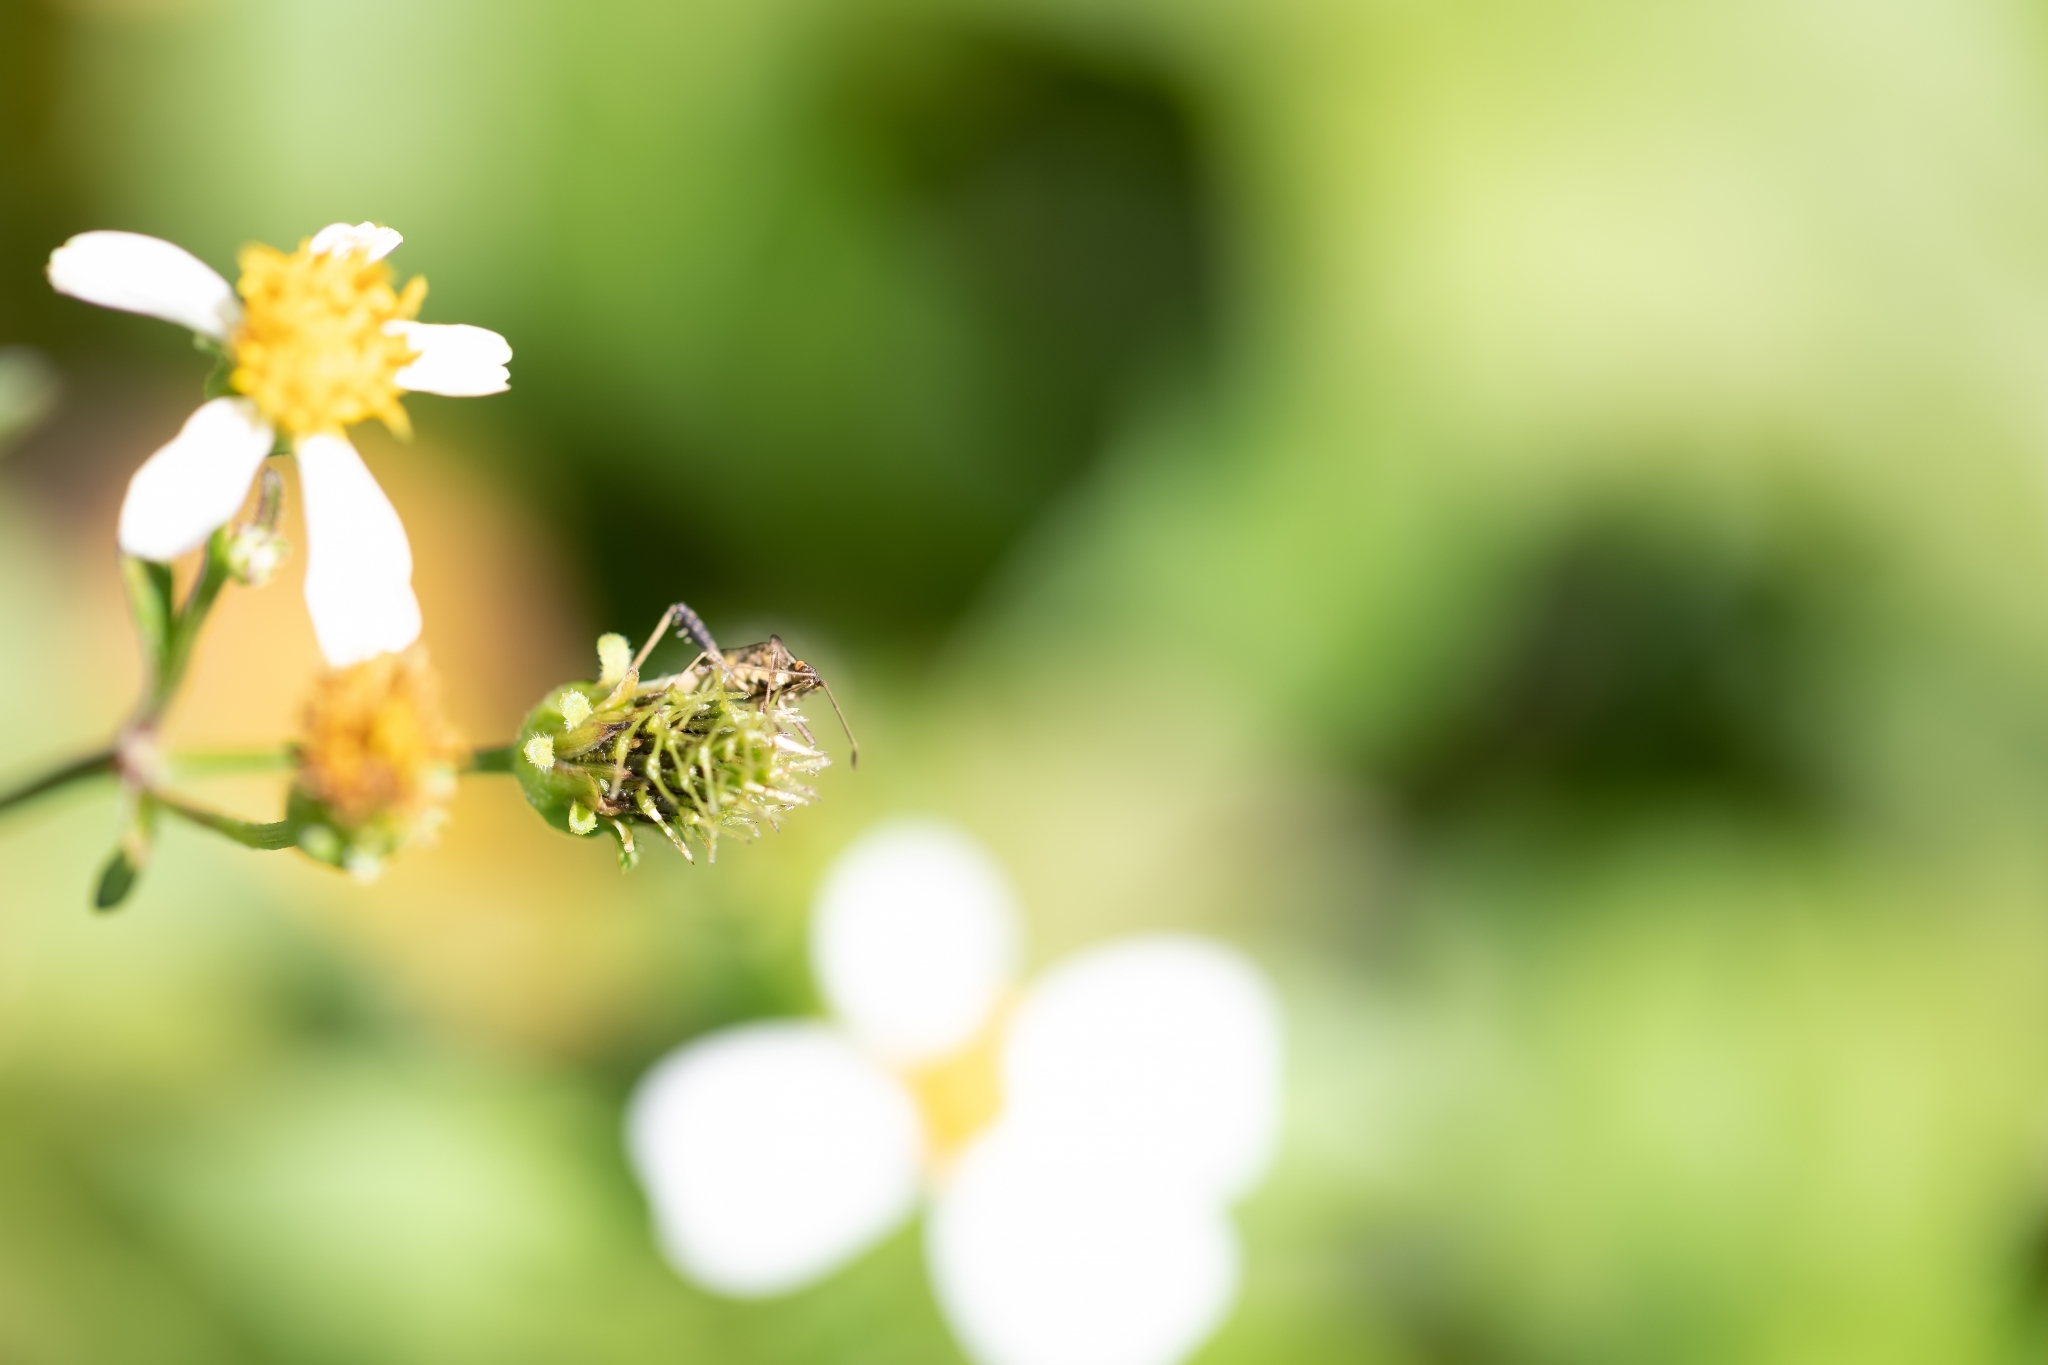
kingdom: Animalia
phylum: Arthropoda
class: Insecta
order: Hemiptera
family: Rhopalidae
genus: Harmostes
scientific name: Harmostes serratus
